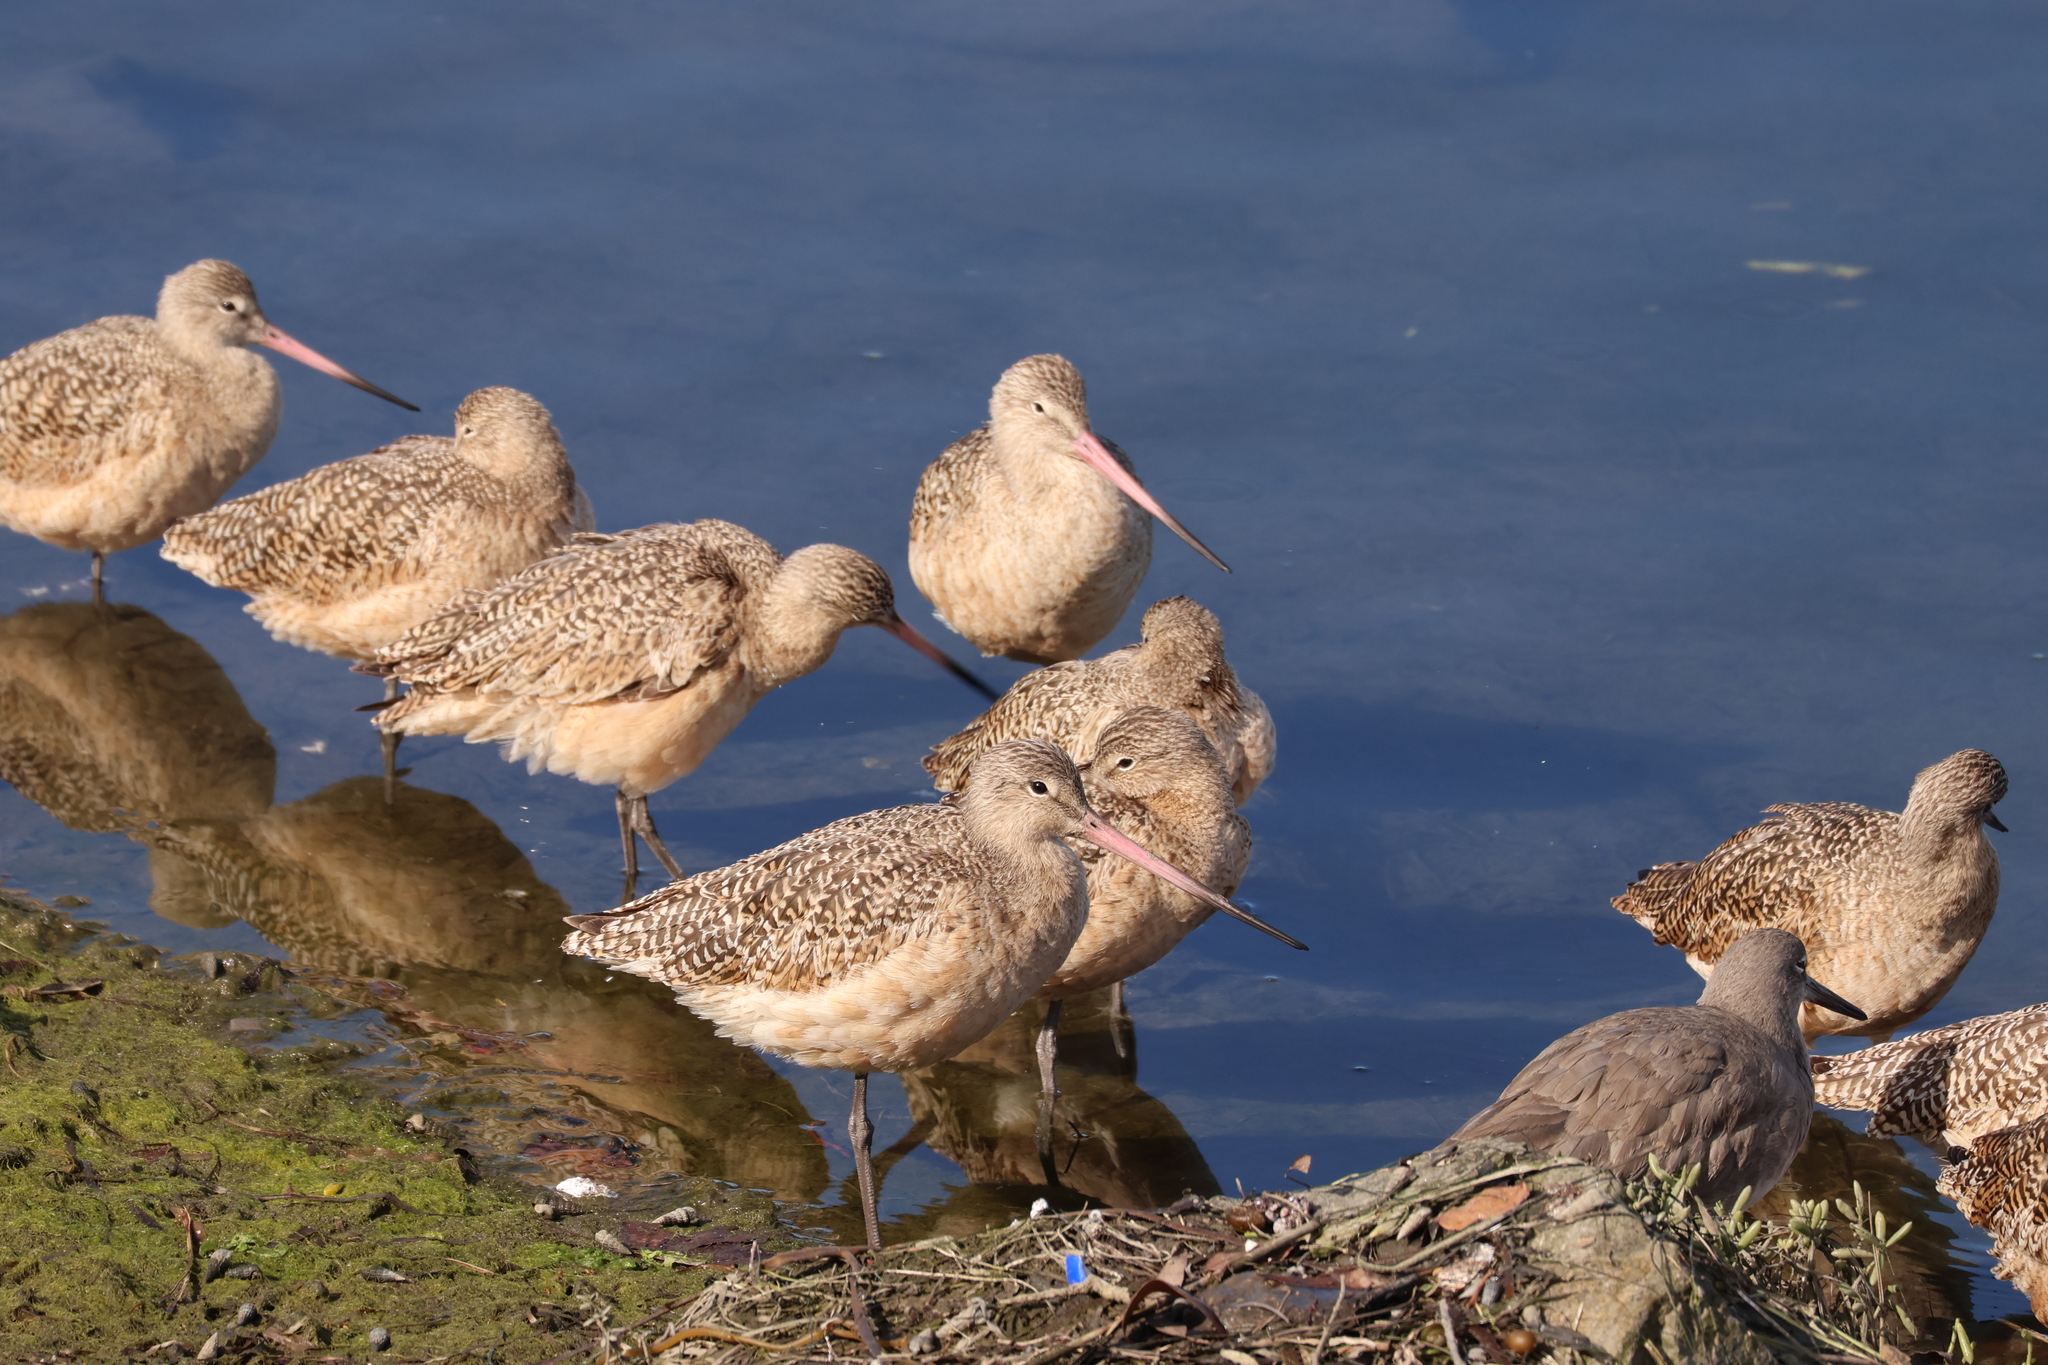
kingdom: Animalia
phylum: Chordata
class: Aves
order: Charadriiformes
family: Scolopacidae
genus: Limosa
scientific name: Limosa fedoa
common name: Marbled godwit
